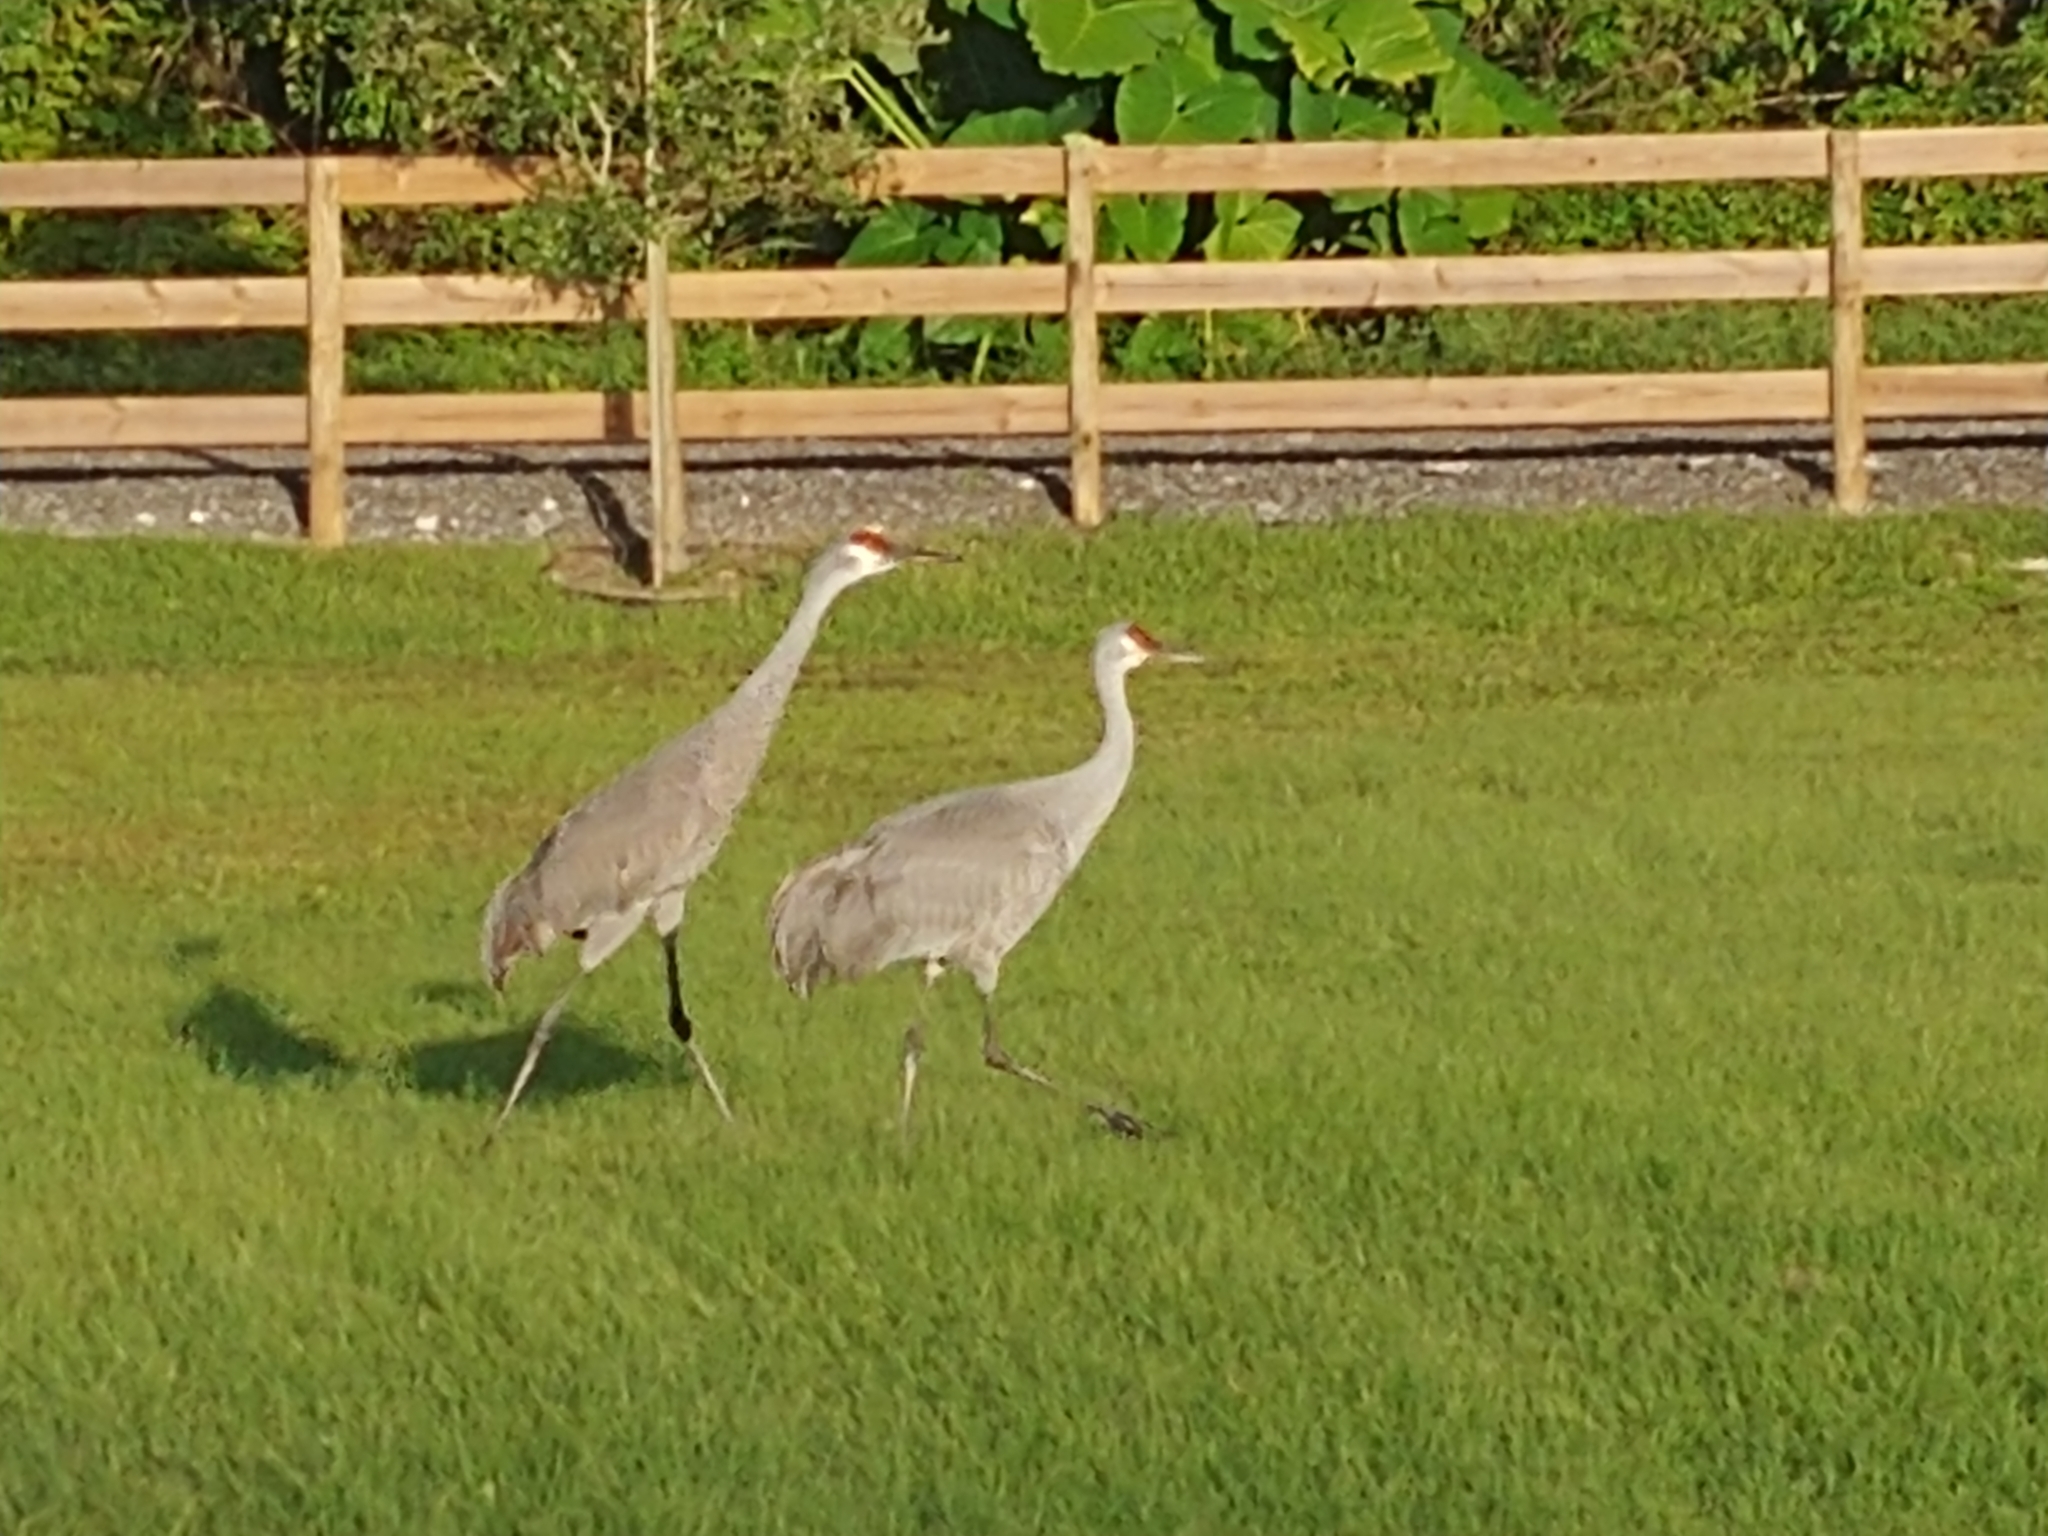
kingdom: Animalia
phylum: Chordata
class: Aves
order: Gruiformes
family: Gruidae
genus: Grus
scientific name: Grus canadensis
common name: Sandhill crane
